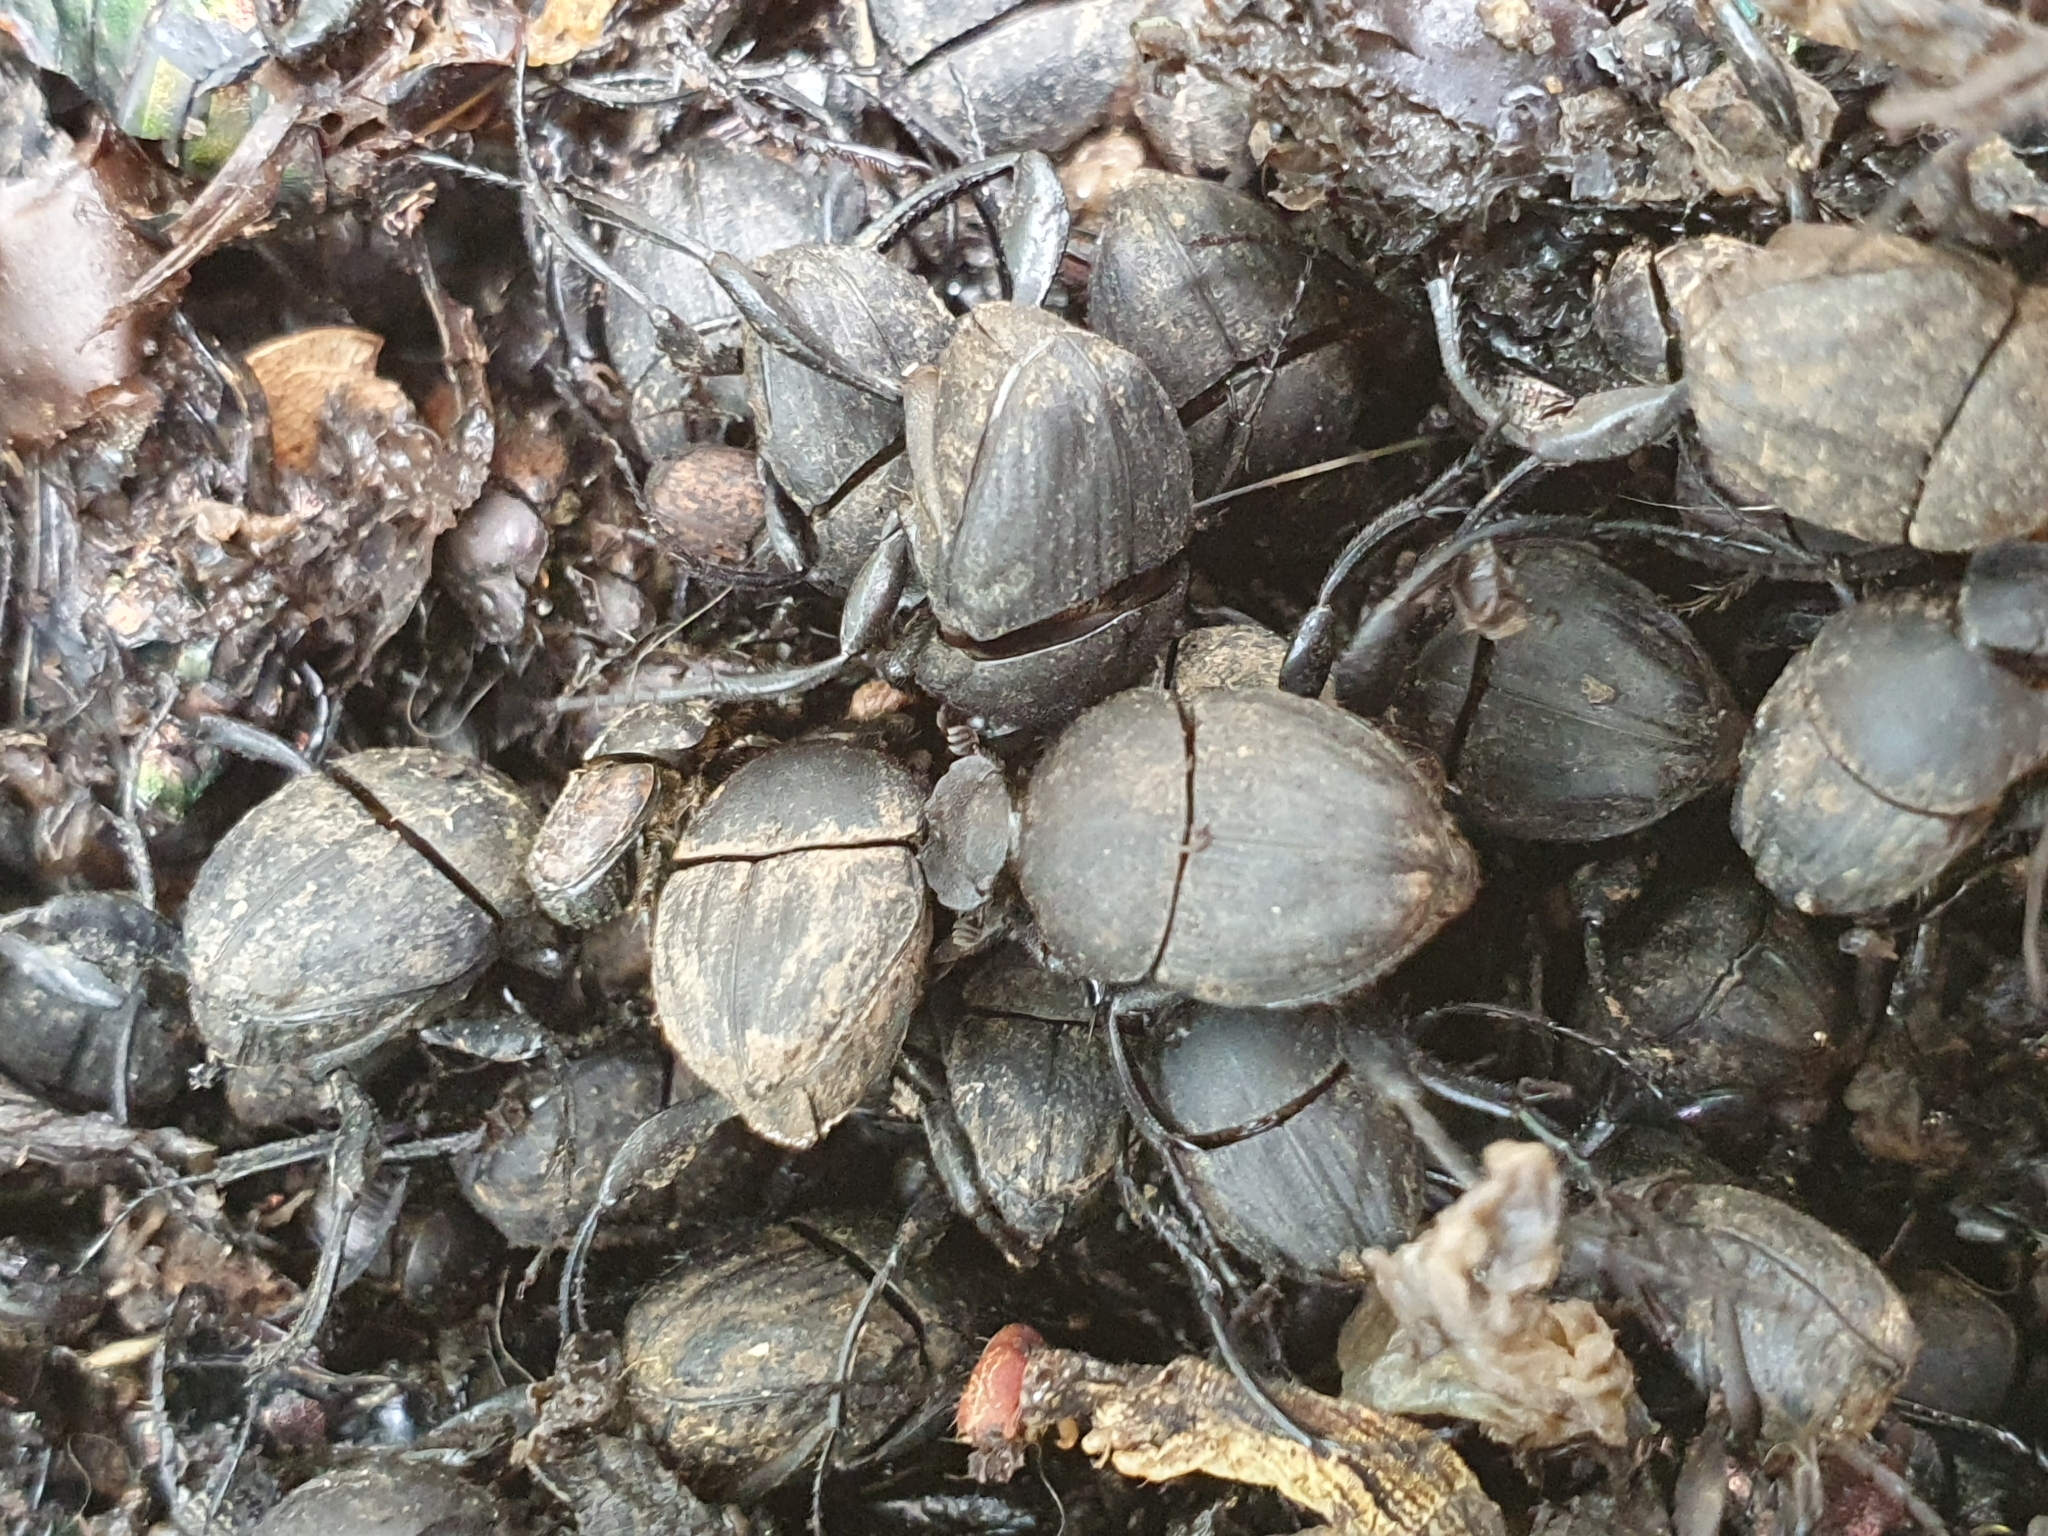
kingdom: Animalia
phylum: Arthropoda
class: Insecta
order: Coleoptera
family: Scarabaeidae
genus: Sisyphus
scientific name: Sisyphus schaefferi
